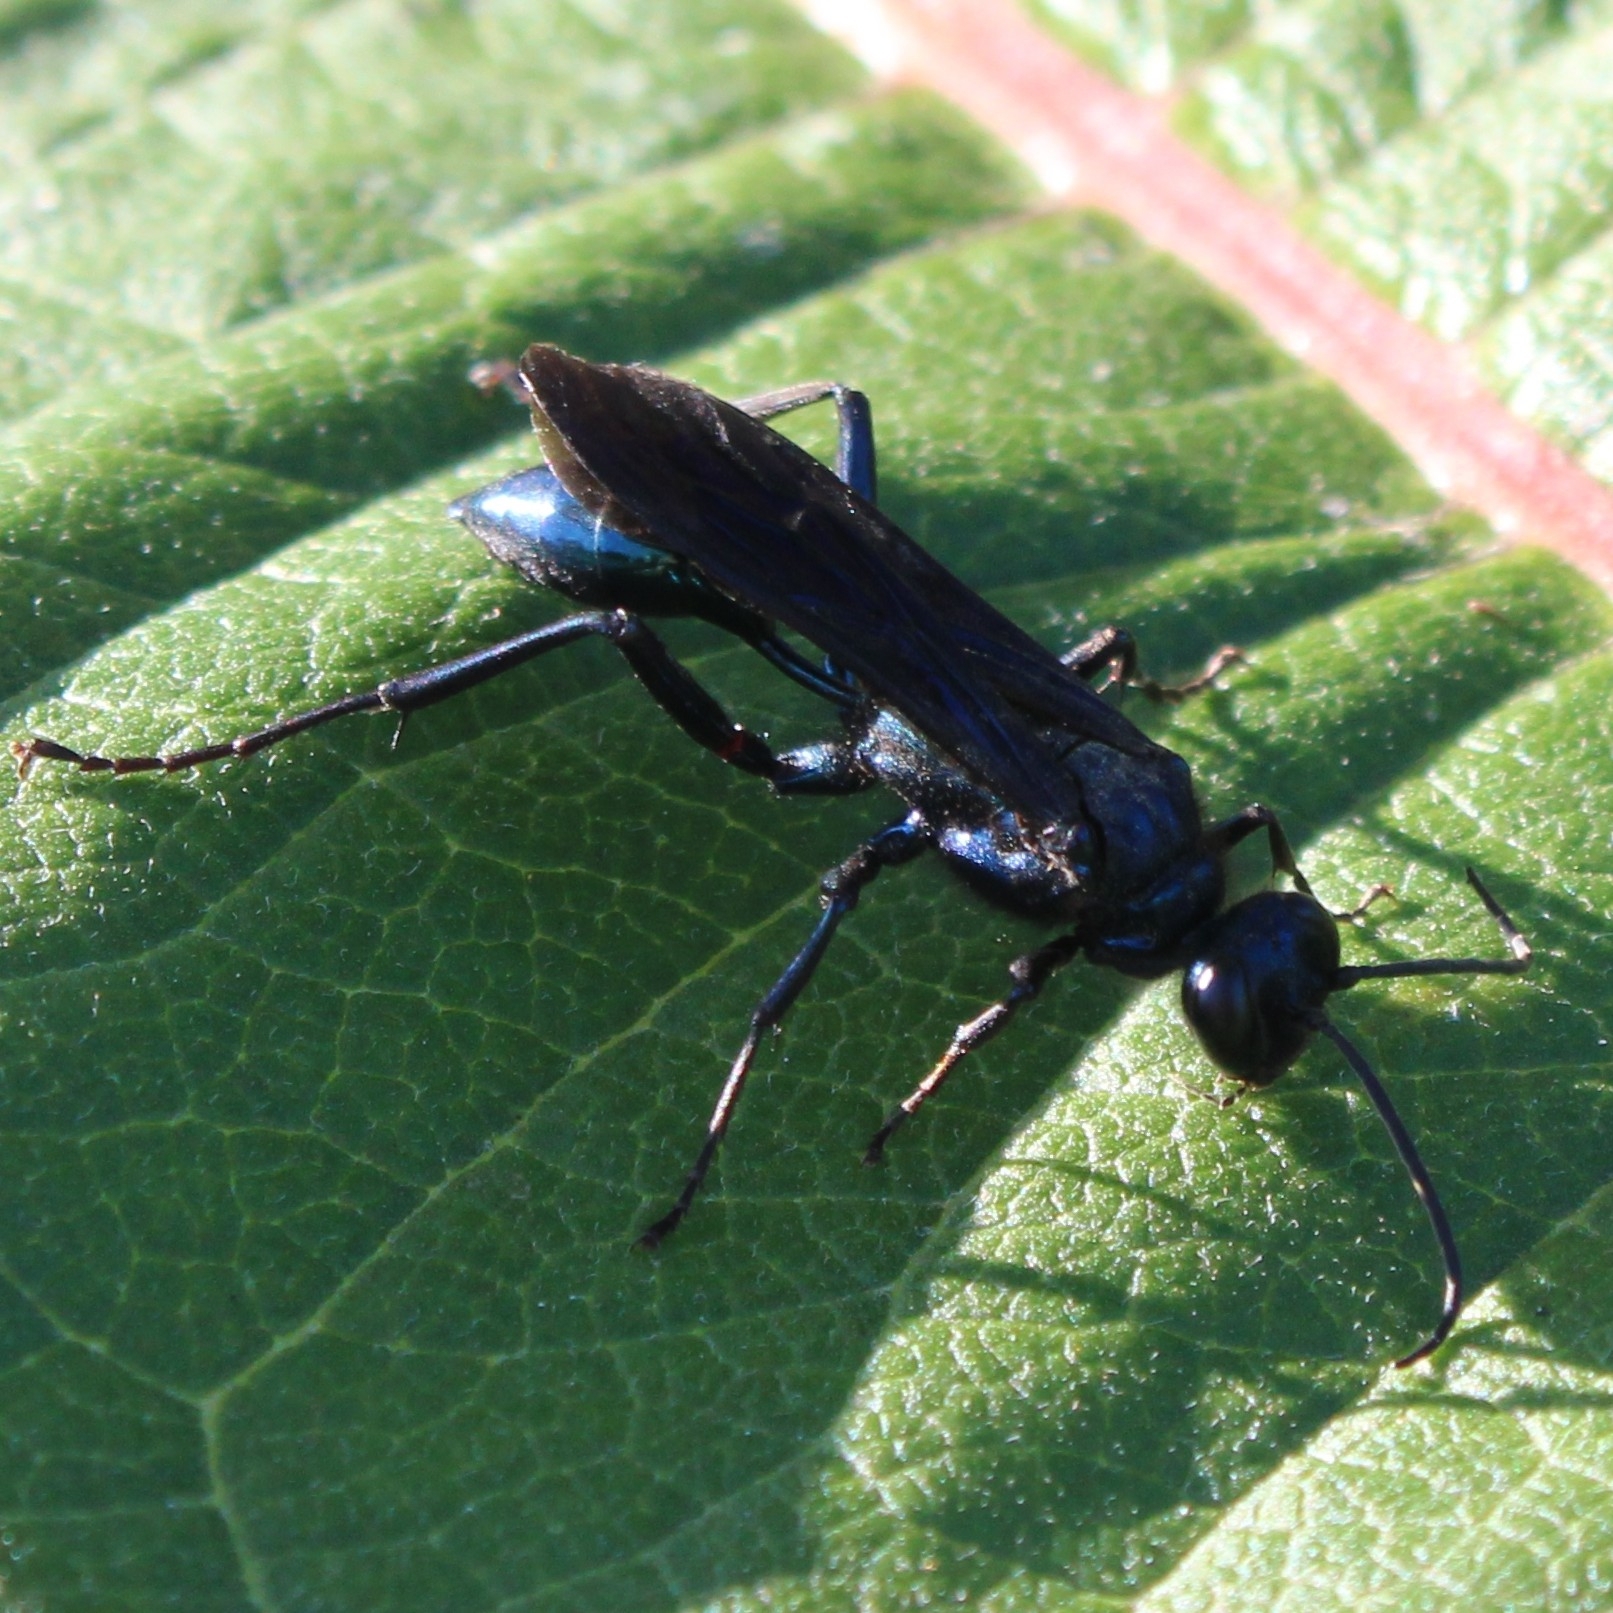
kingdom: Animalia
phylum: Arthropoda
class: Insecta
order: Hymenoptera
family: Sphecidae
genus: Chalybion
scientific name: Chalybion californicum
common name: Mud dauber
